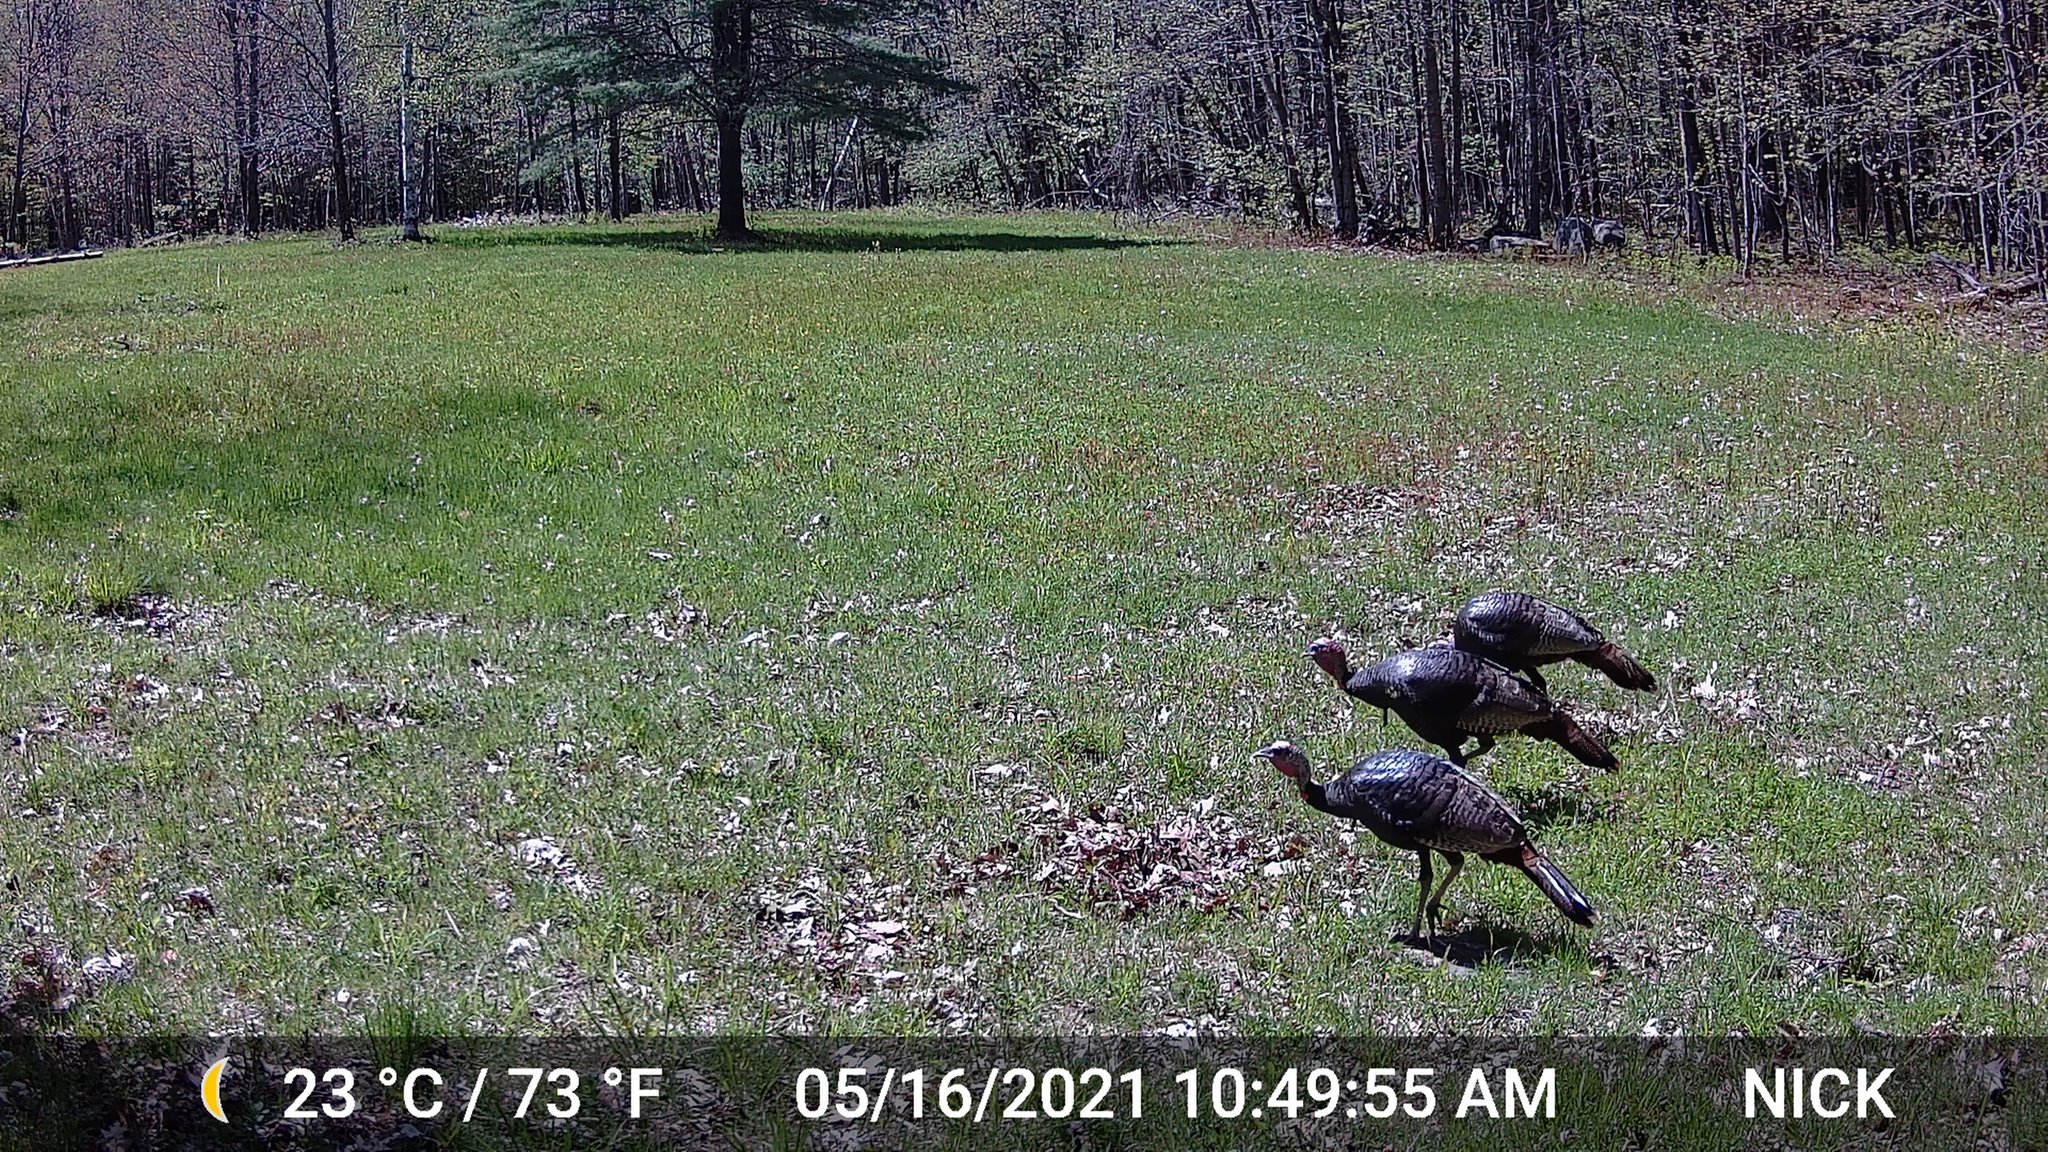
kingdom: Animalia
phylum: Chordata
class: Aves
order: Galliformes
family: Phasianidae
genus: Meleagris
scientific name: Meleagris gallopavo
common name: Wild turkey
